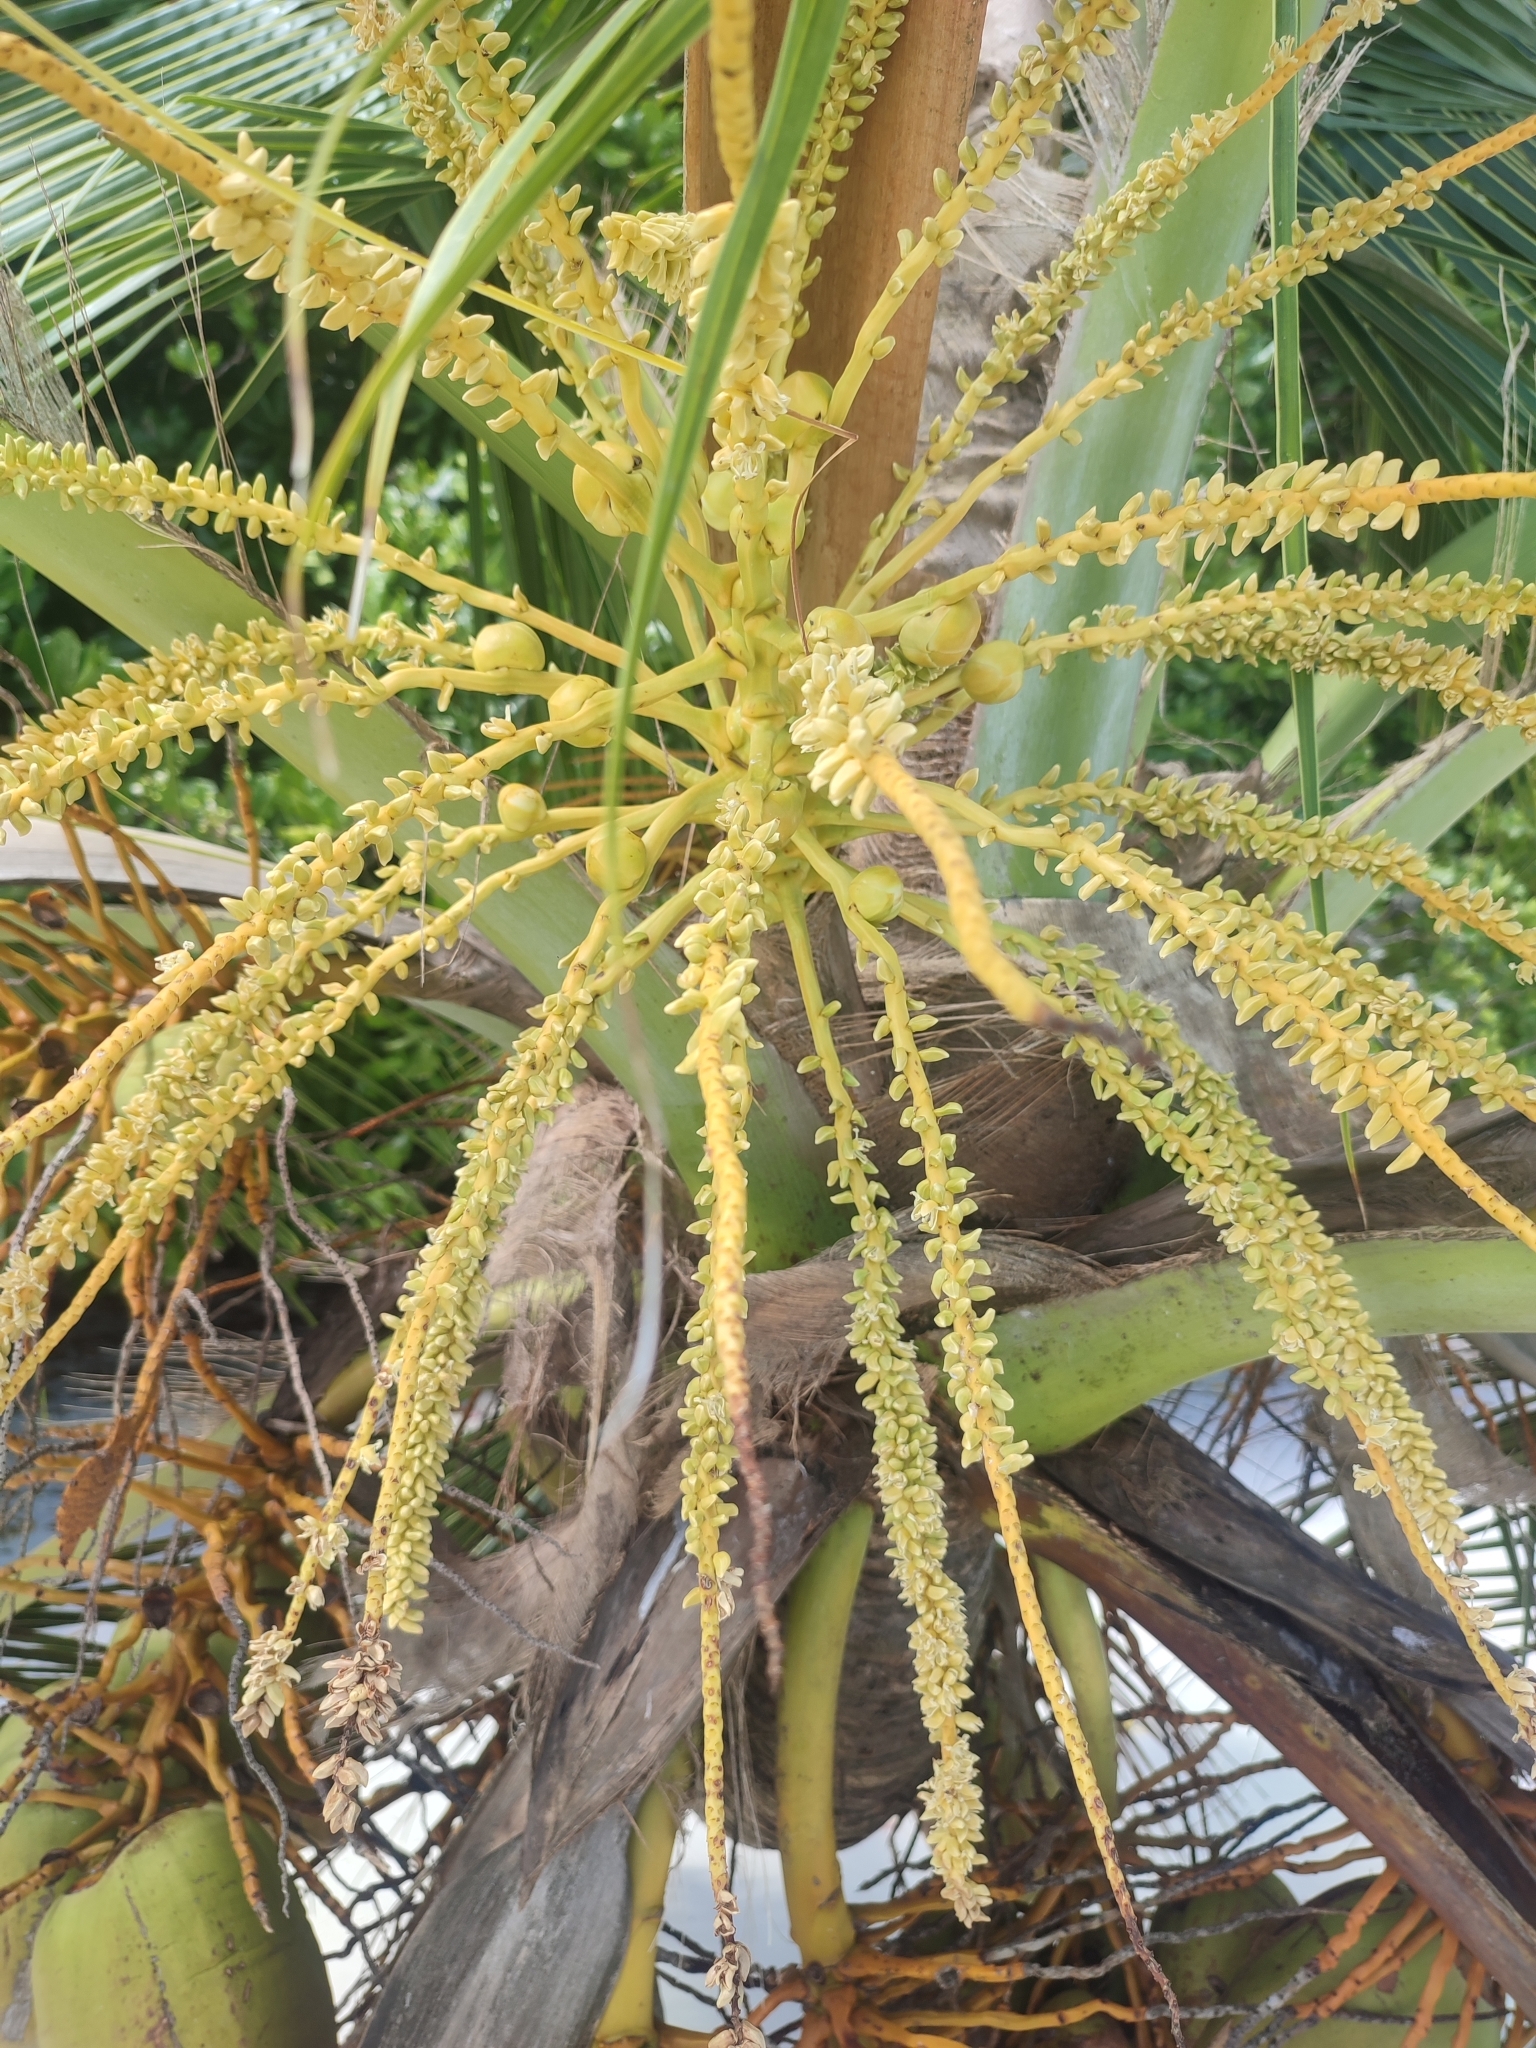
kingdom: Plantae
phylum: Tracheophyta
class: Liliopsida
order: Arecales
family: Arecaceae
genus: Cocos
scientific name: Cocos nucifera
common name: Coconut palm
